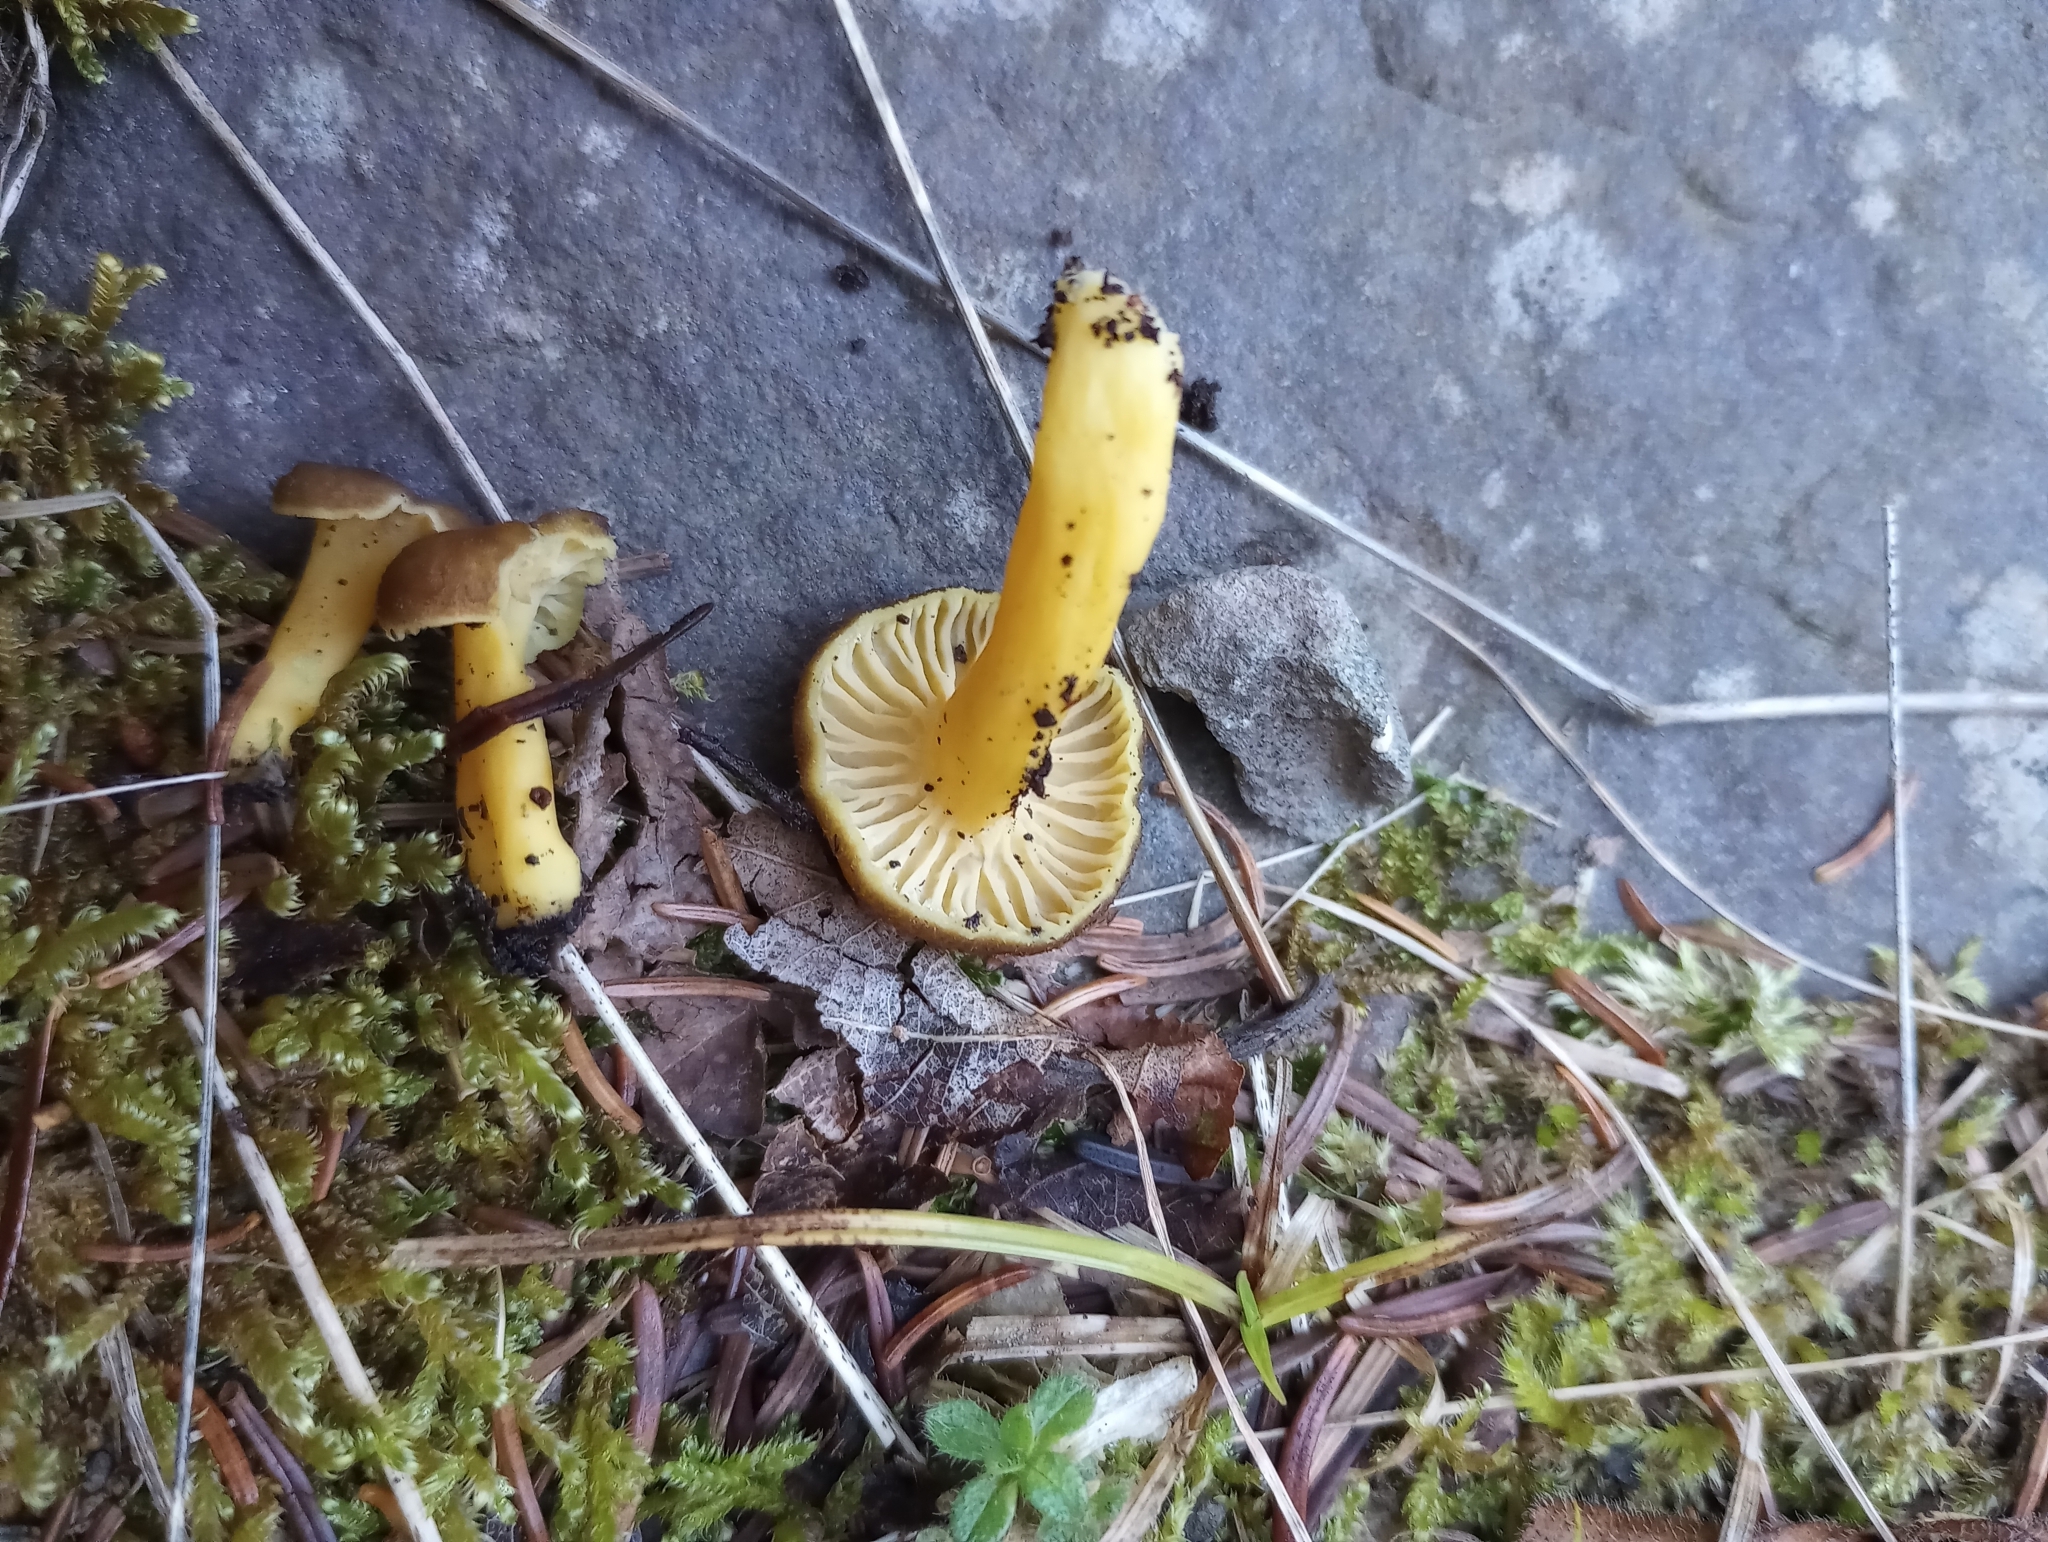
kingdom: Fungi
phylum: Basidiomycota
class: Agaricomycetes
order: Cantharellales
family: Hydnaceae
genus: Craterellus
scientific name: Craterellus tubaeformis
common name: Yellowfoot
